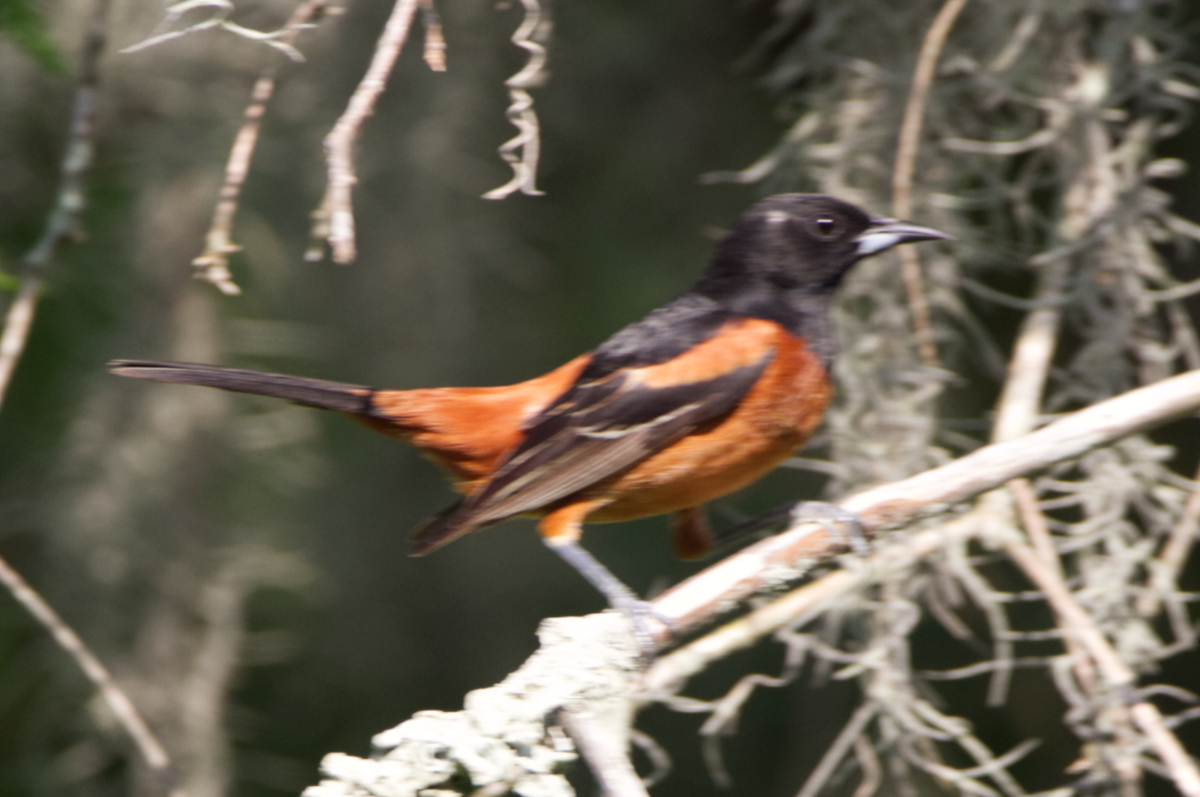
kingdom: Animalia
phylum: Chordata
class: Aves
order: Passeriformes
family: Icteridae
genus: Icterus
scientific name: Icterus spurius
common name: Orchard oriole
